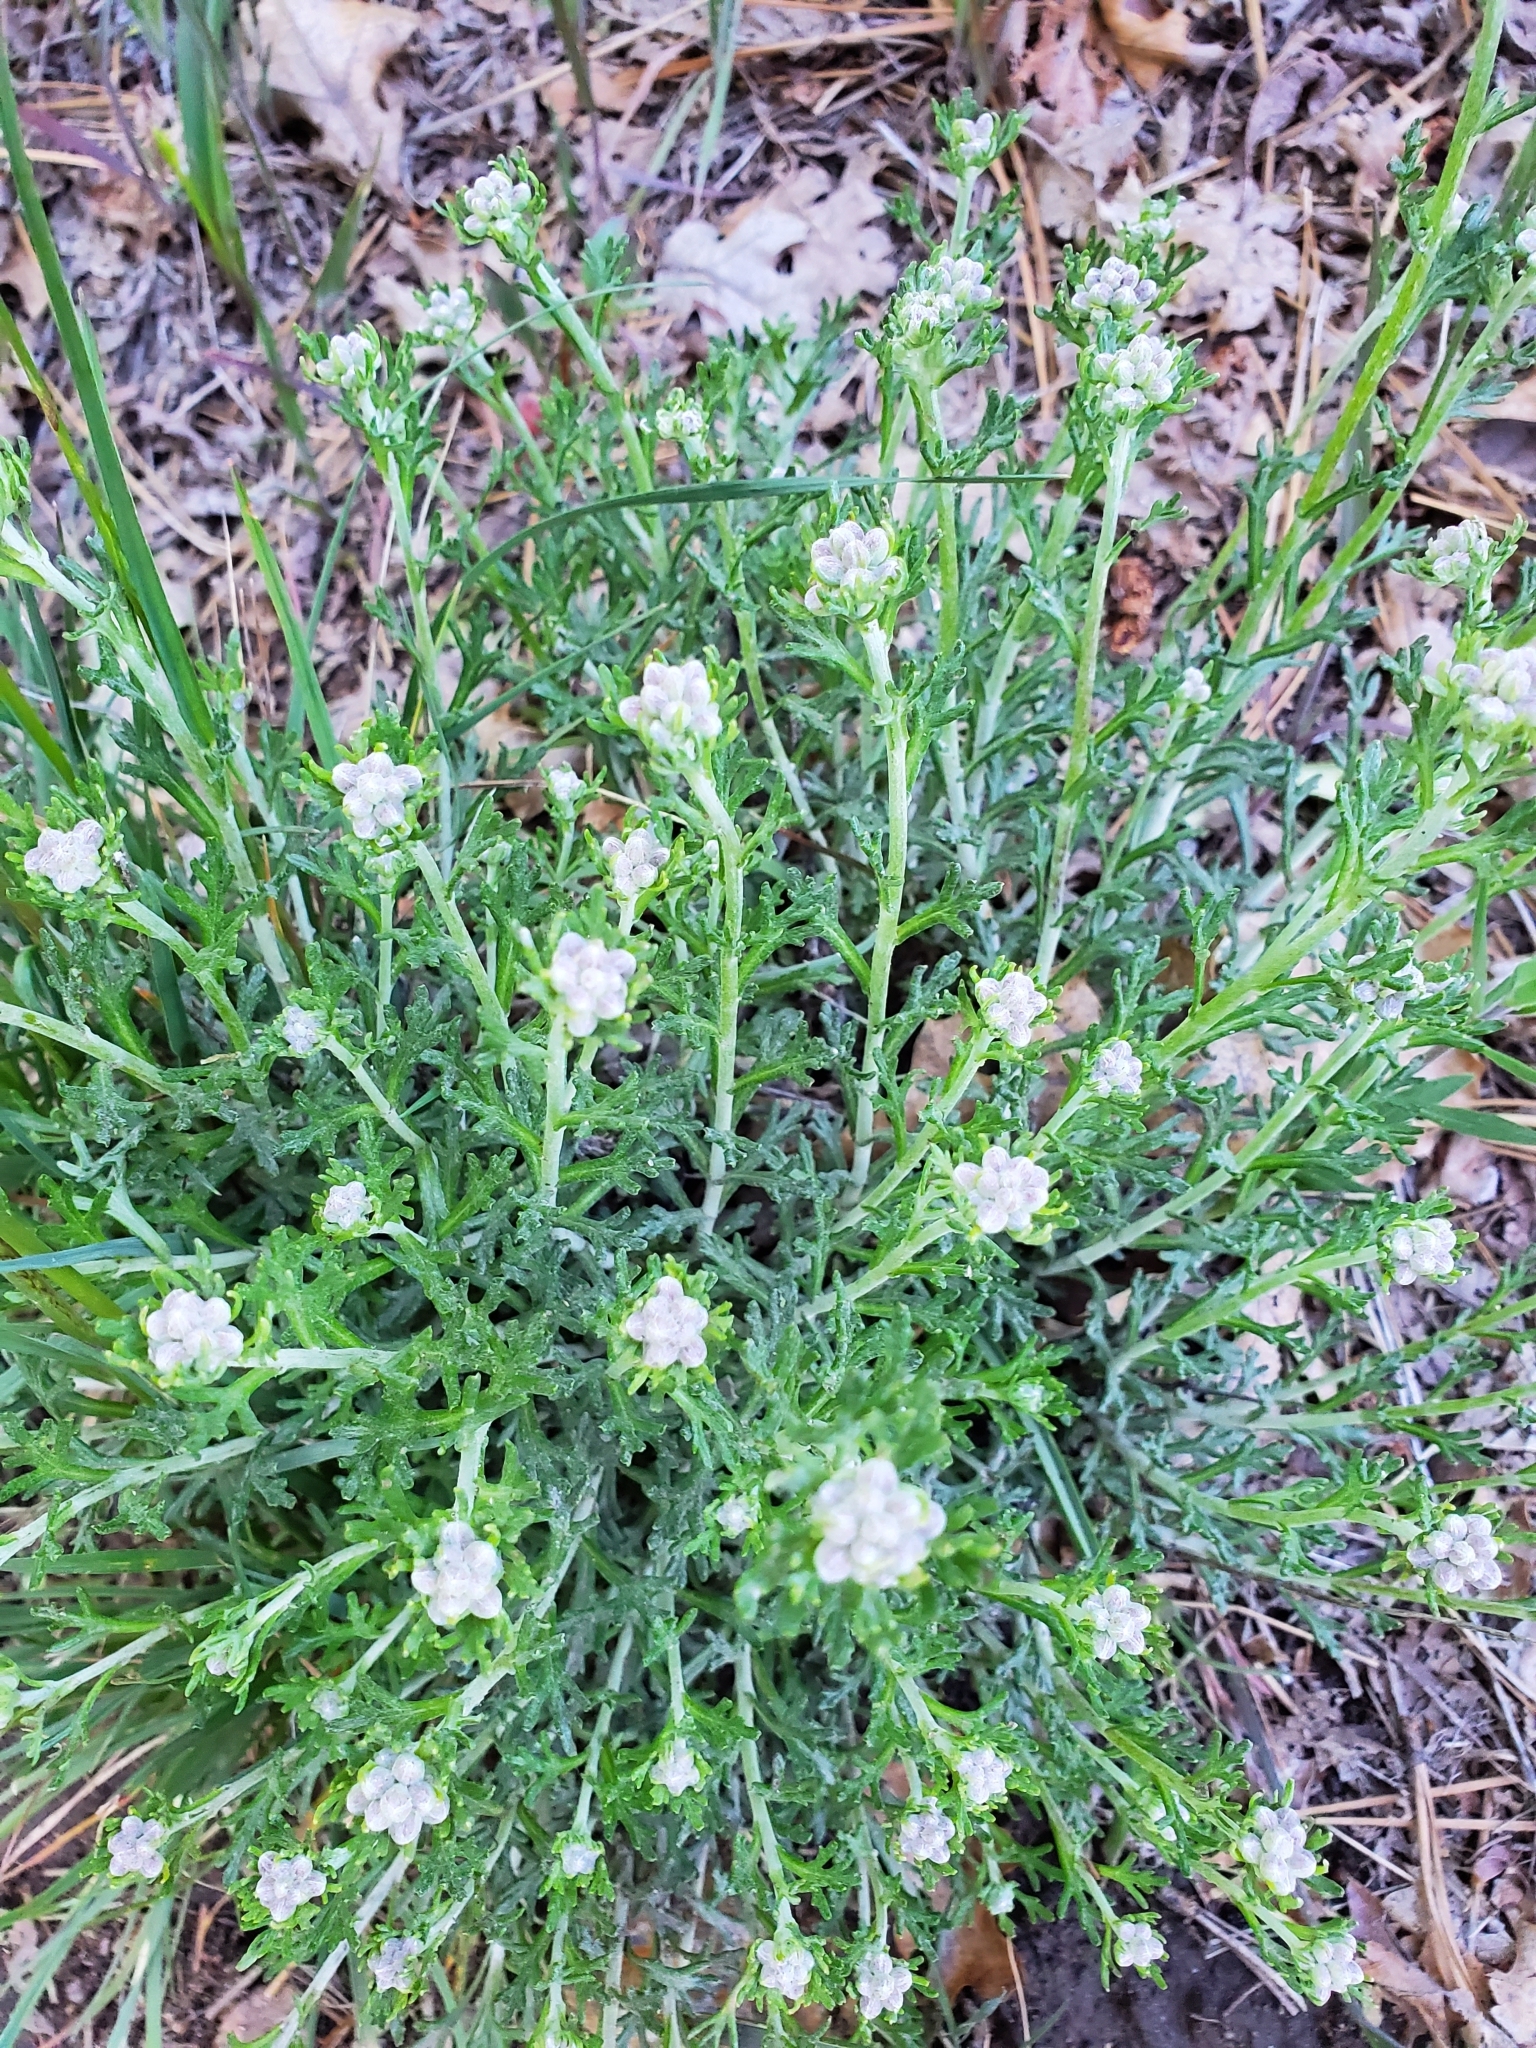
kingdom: Plantae
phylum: Tracheophyta
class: Magnoliopsida
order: Asterales
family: Asteraceae
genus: Eriophyllum
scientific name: Eriophyllum confertiflorum
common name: Golden-yarrow
